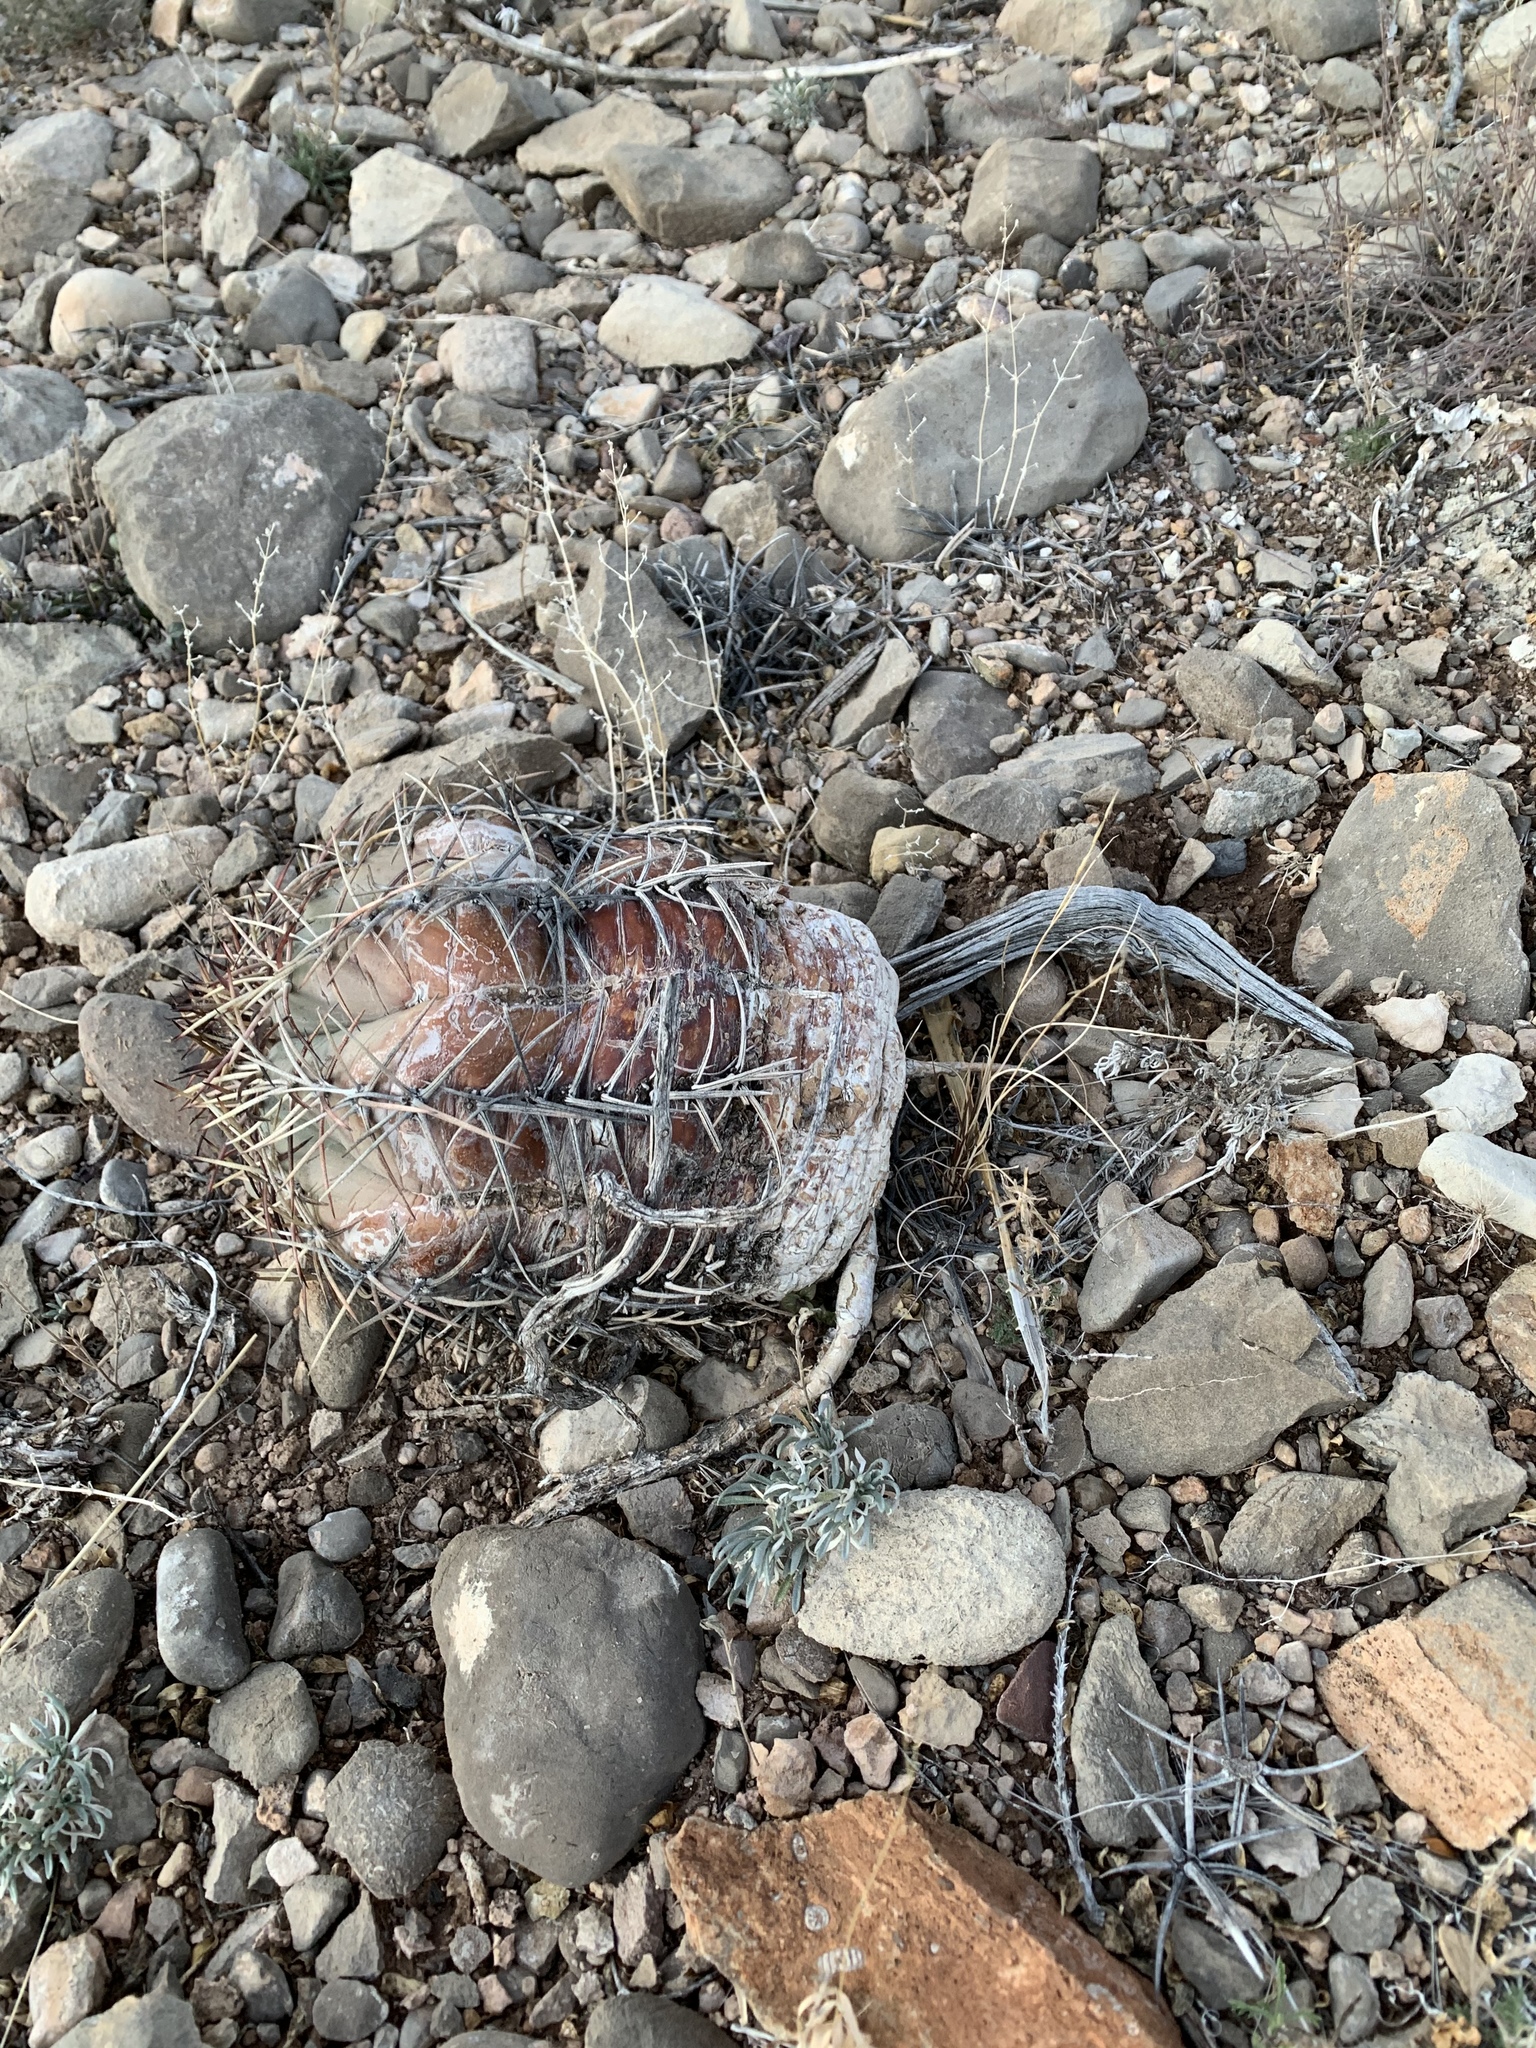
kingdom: Plantae
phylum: Tracheophyta
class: Magnoliopsida
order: Caryophyllales
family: Cactaceae
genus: Echinocactus
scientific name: Echinocactus horizonthalonius
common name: Devilshead
